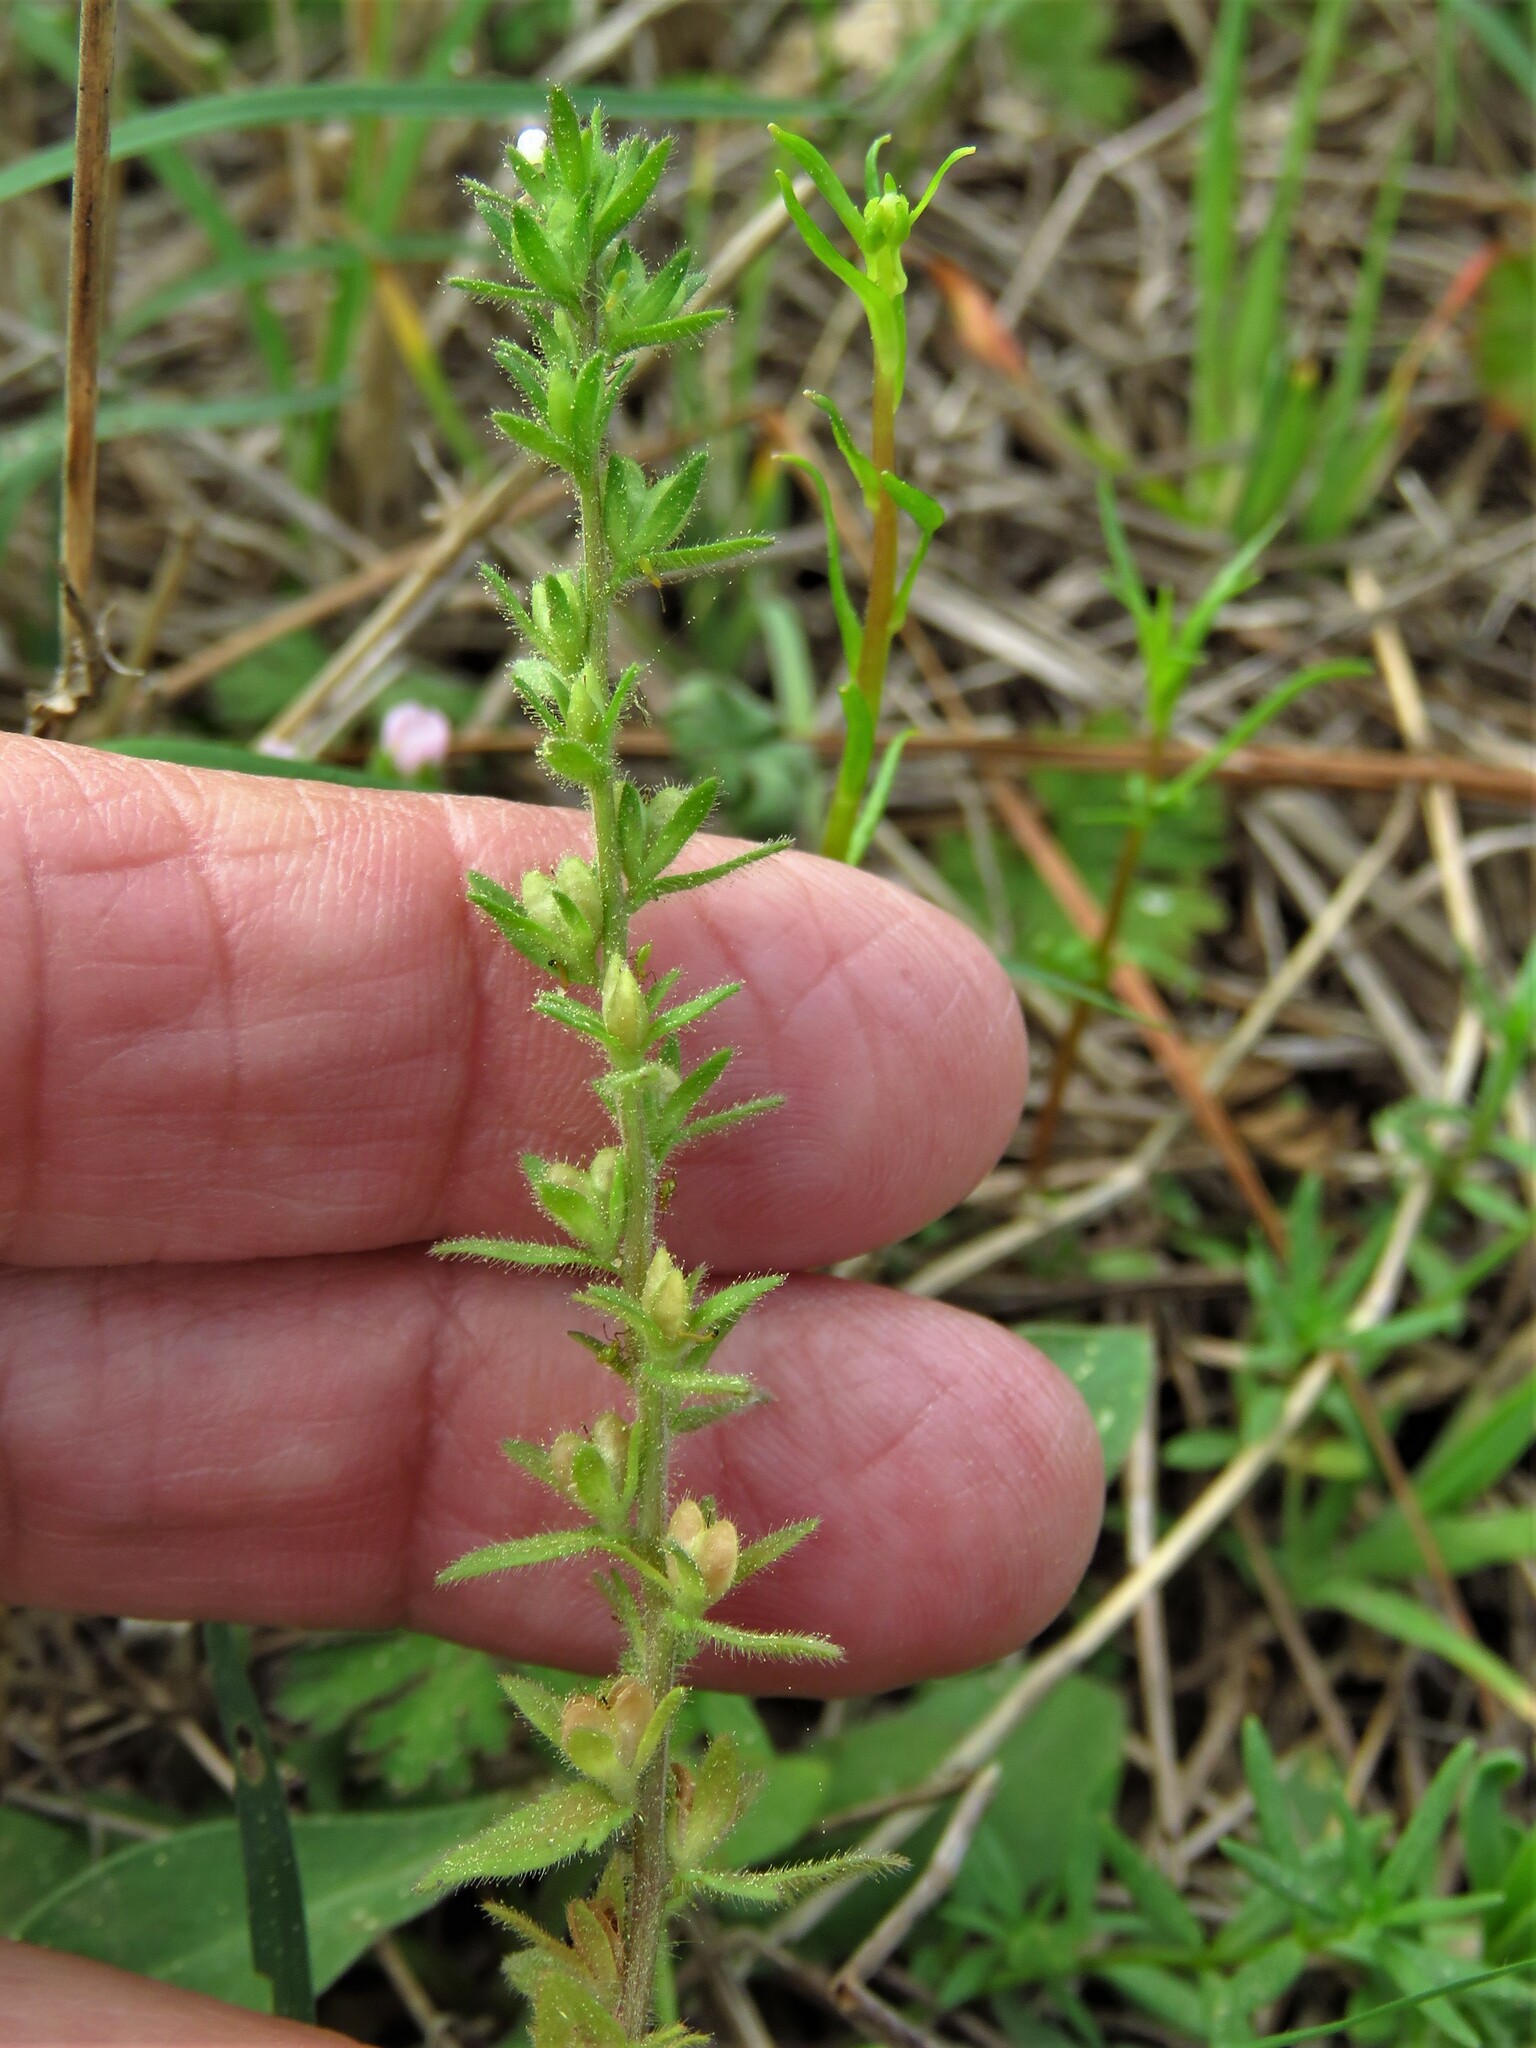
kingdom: Plantae
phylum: Tracheophyta
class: Magnoliopsida
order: Lamiales
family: Plantaginaceae
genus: Veronica
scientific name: Veronica arvensis
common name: Corn speedwell
